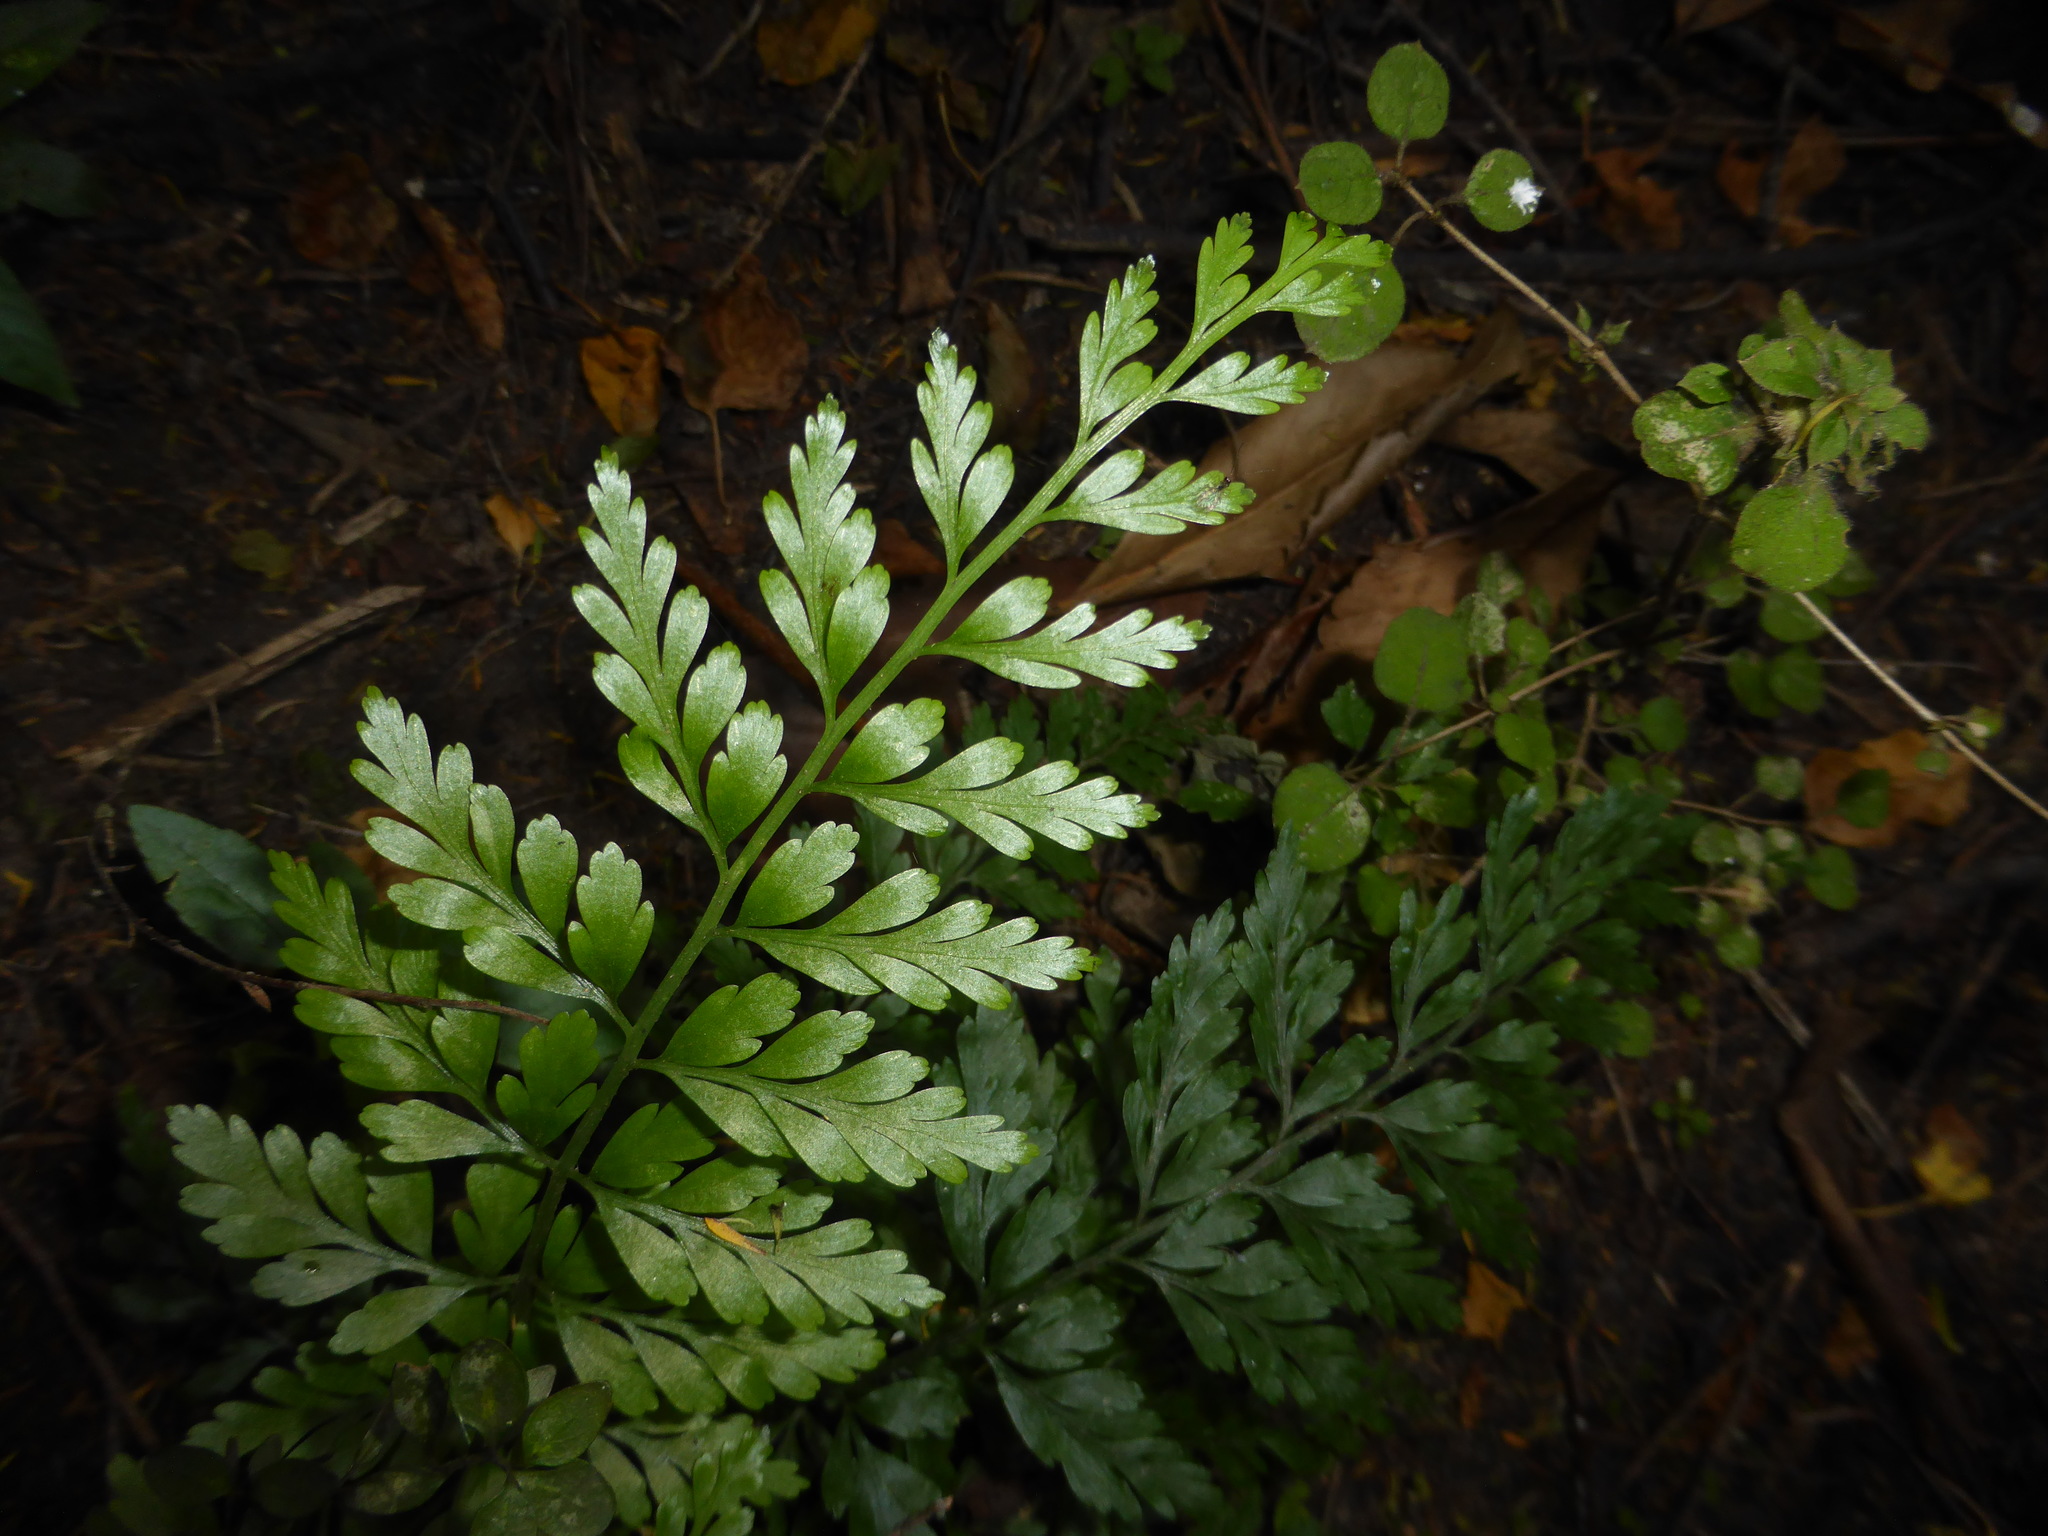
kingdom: Plantae
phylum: Tracheophyta
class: Polypodiopsida
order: Polypodiales
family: Aspleniaceae
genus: Asplenium
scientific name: Asplenium
